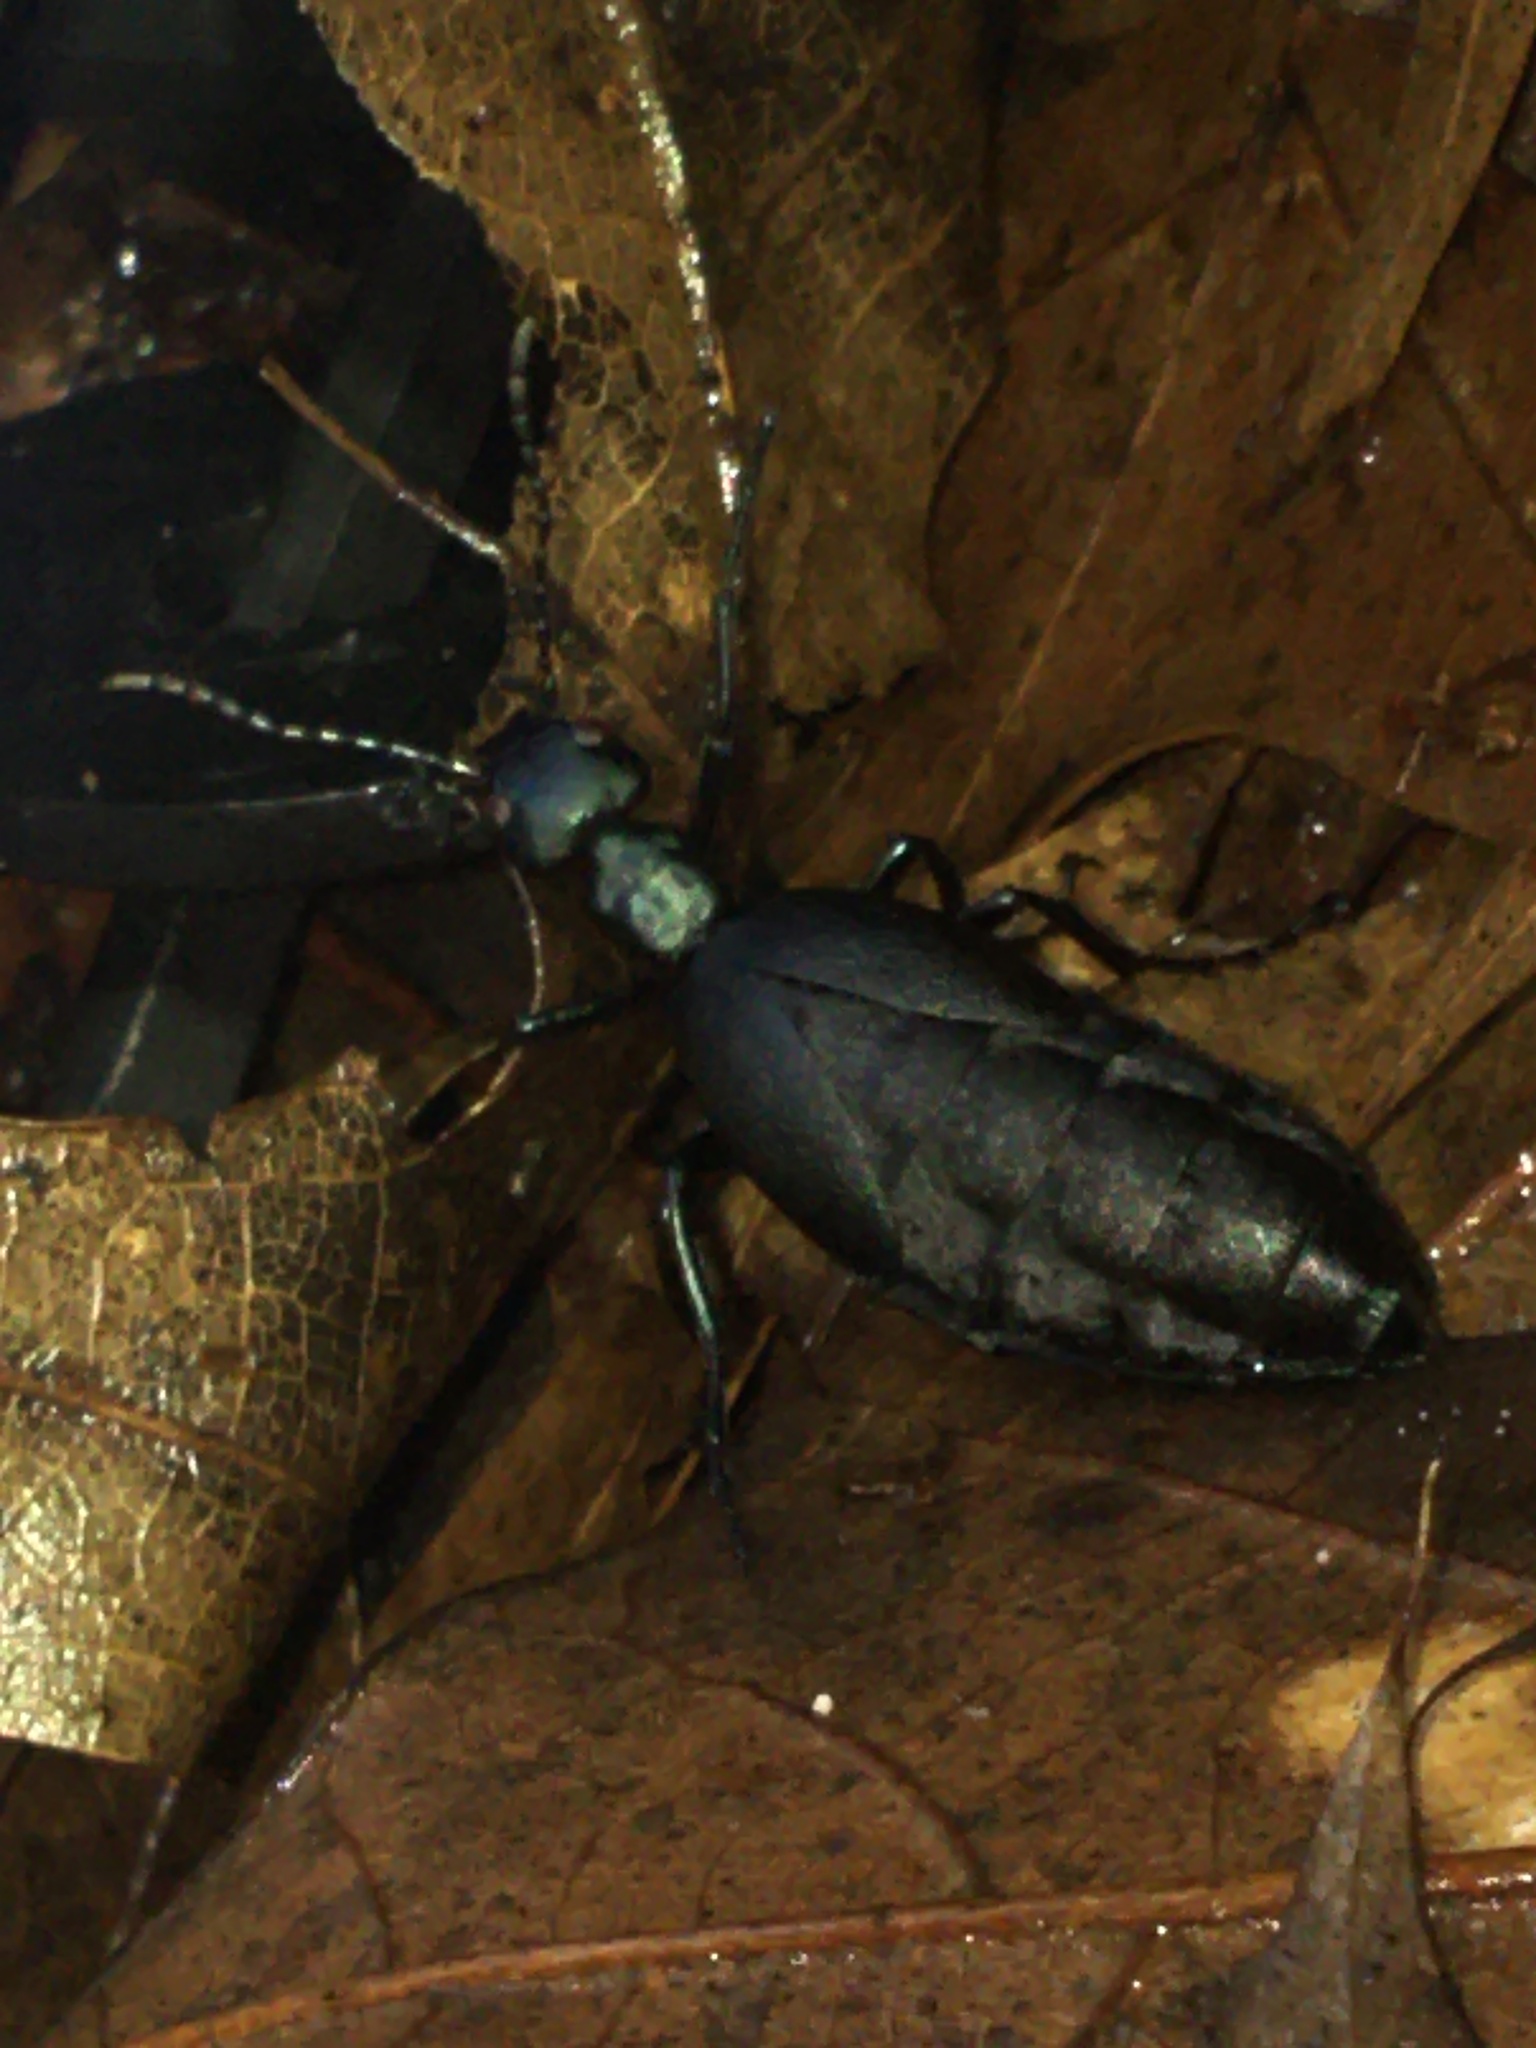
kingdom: Animalia
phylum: Arthropoda
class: Insecta
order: Coleoptera
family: Meloidae
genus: Meloe
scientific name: Meloe americanus
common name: Buttercup oil beetle
